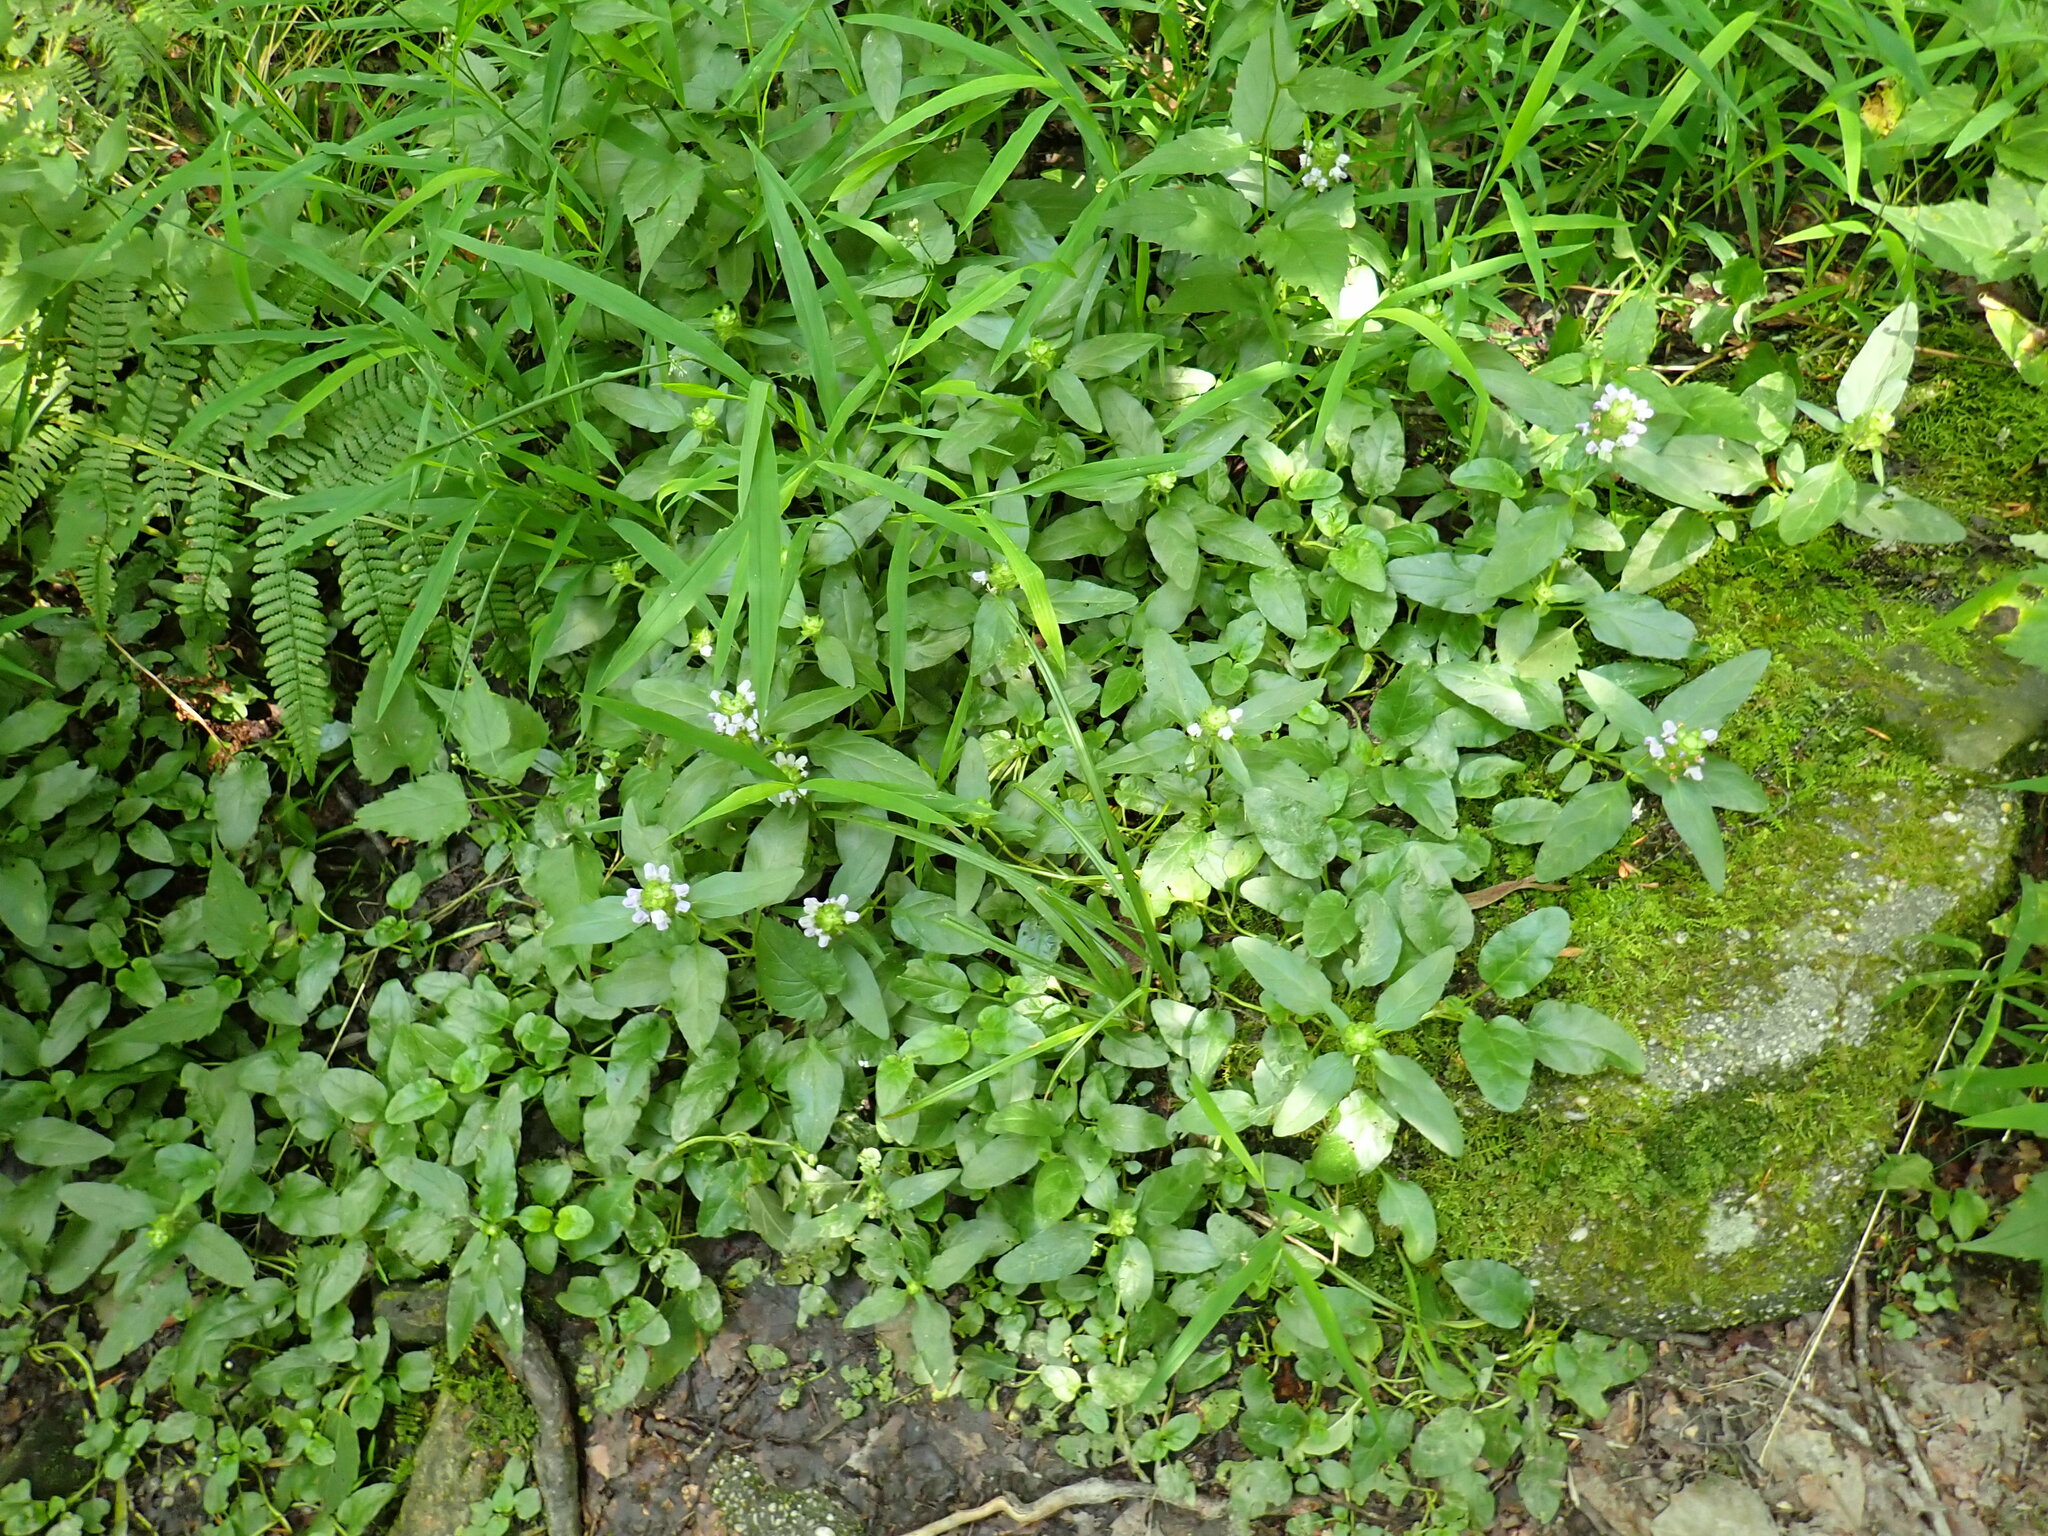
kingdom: Plantae
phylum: Tracheophyta
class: Magnoliopsida
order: Lamiales
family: Lamiaceae
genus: Prunella
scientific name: Prunella vulgaris
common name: Heal-all
